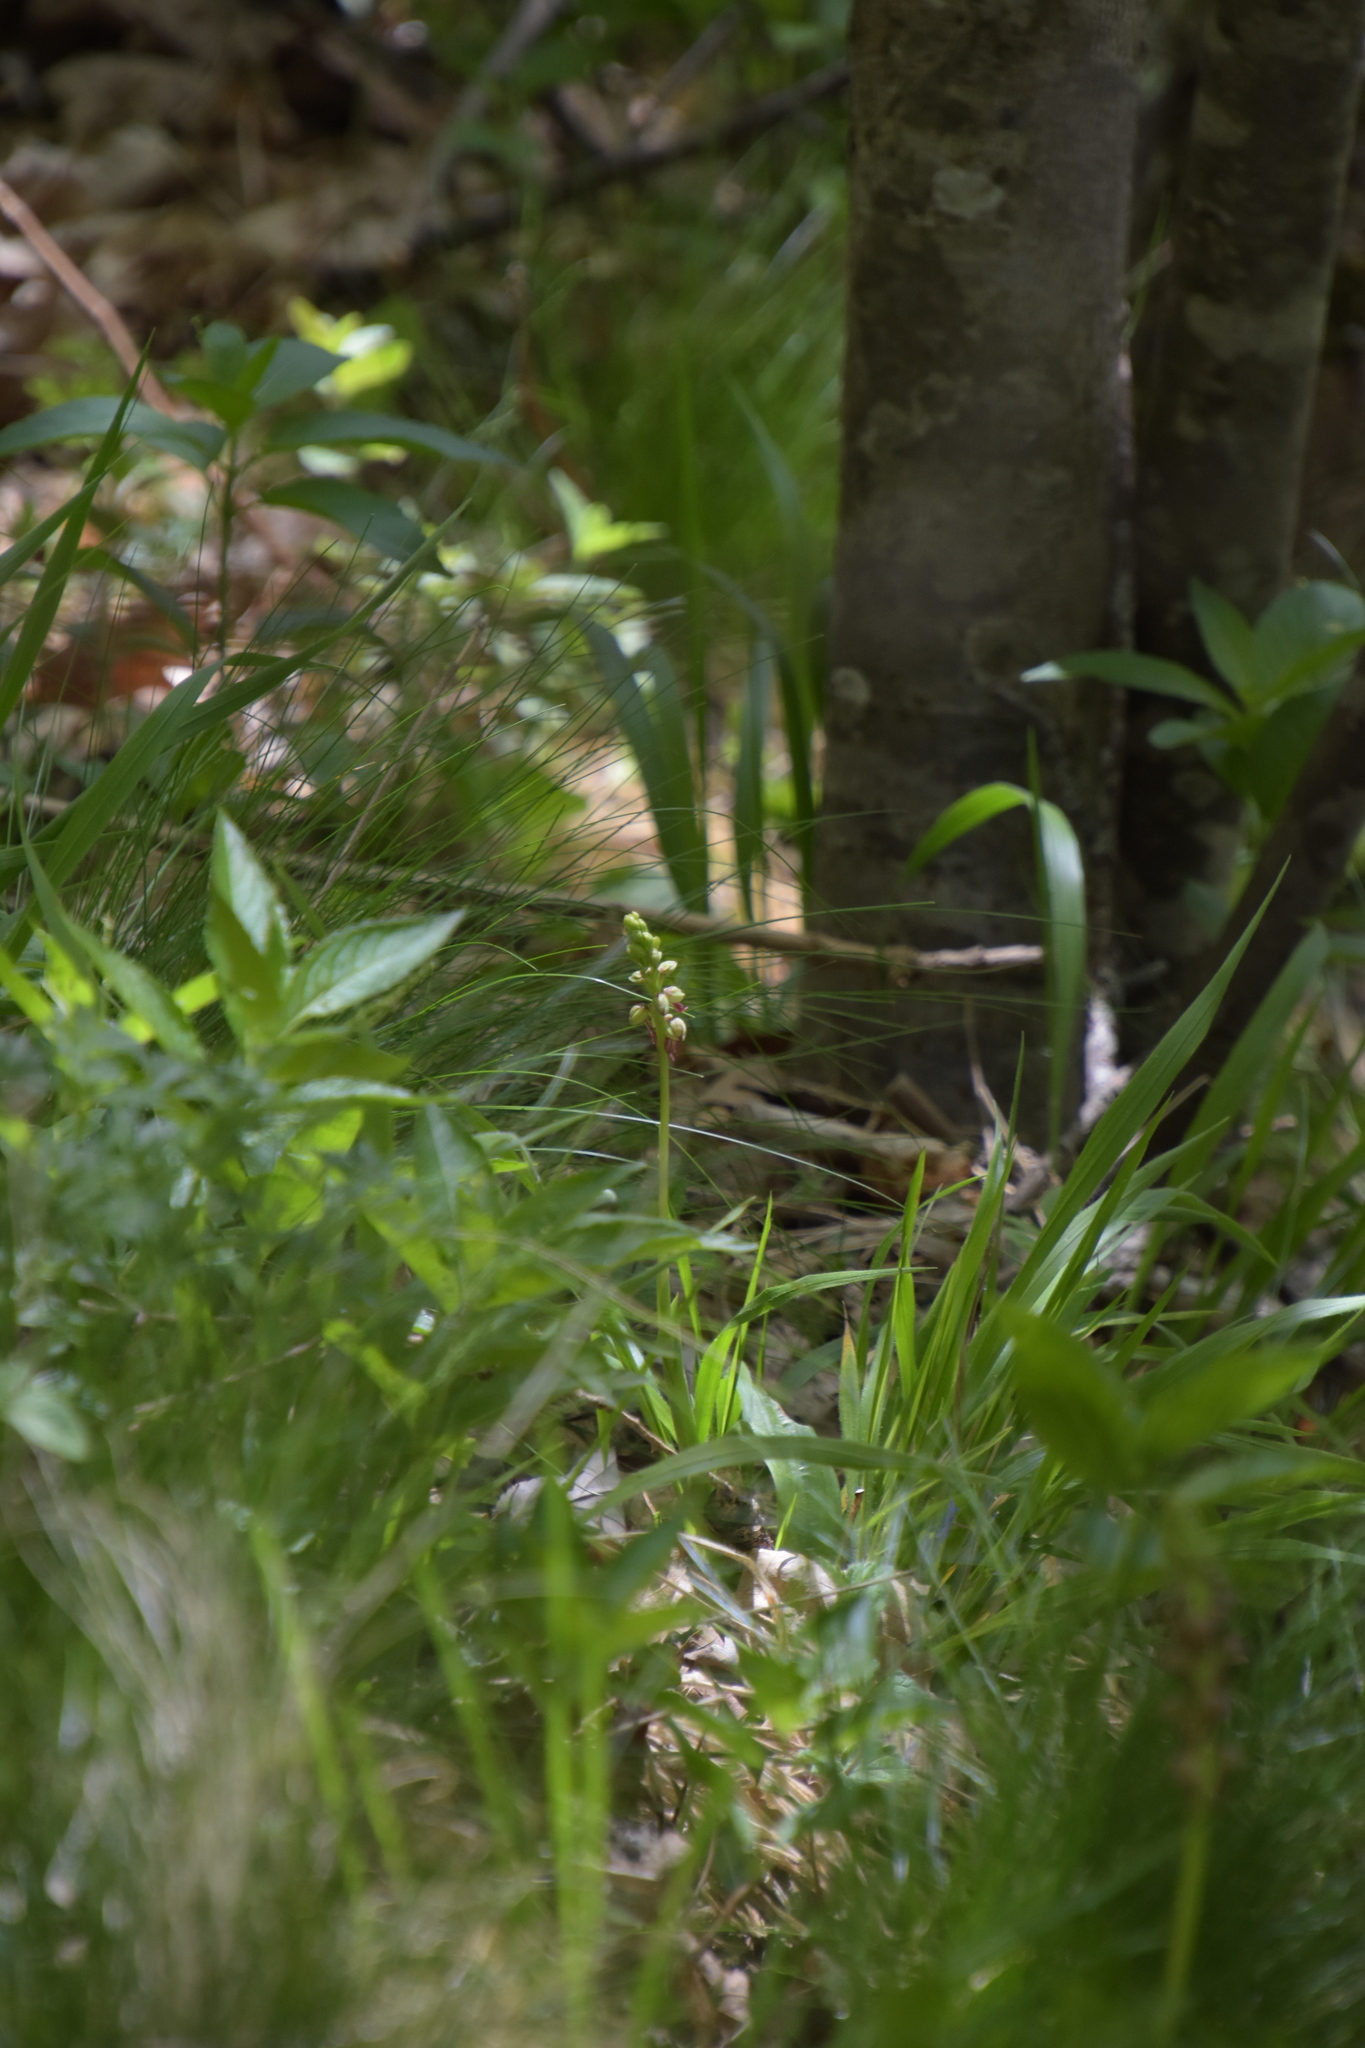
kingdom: Plantae
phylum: Tracheophyta
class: Liliopsida
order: Asparagales
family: Orchidaceae
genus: Orchis
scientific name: Orchis anthropophora
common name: Man orchid
